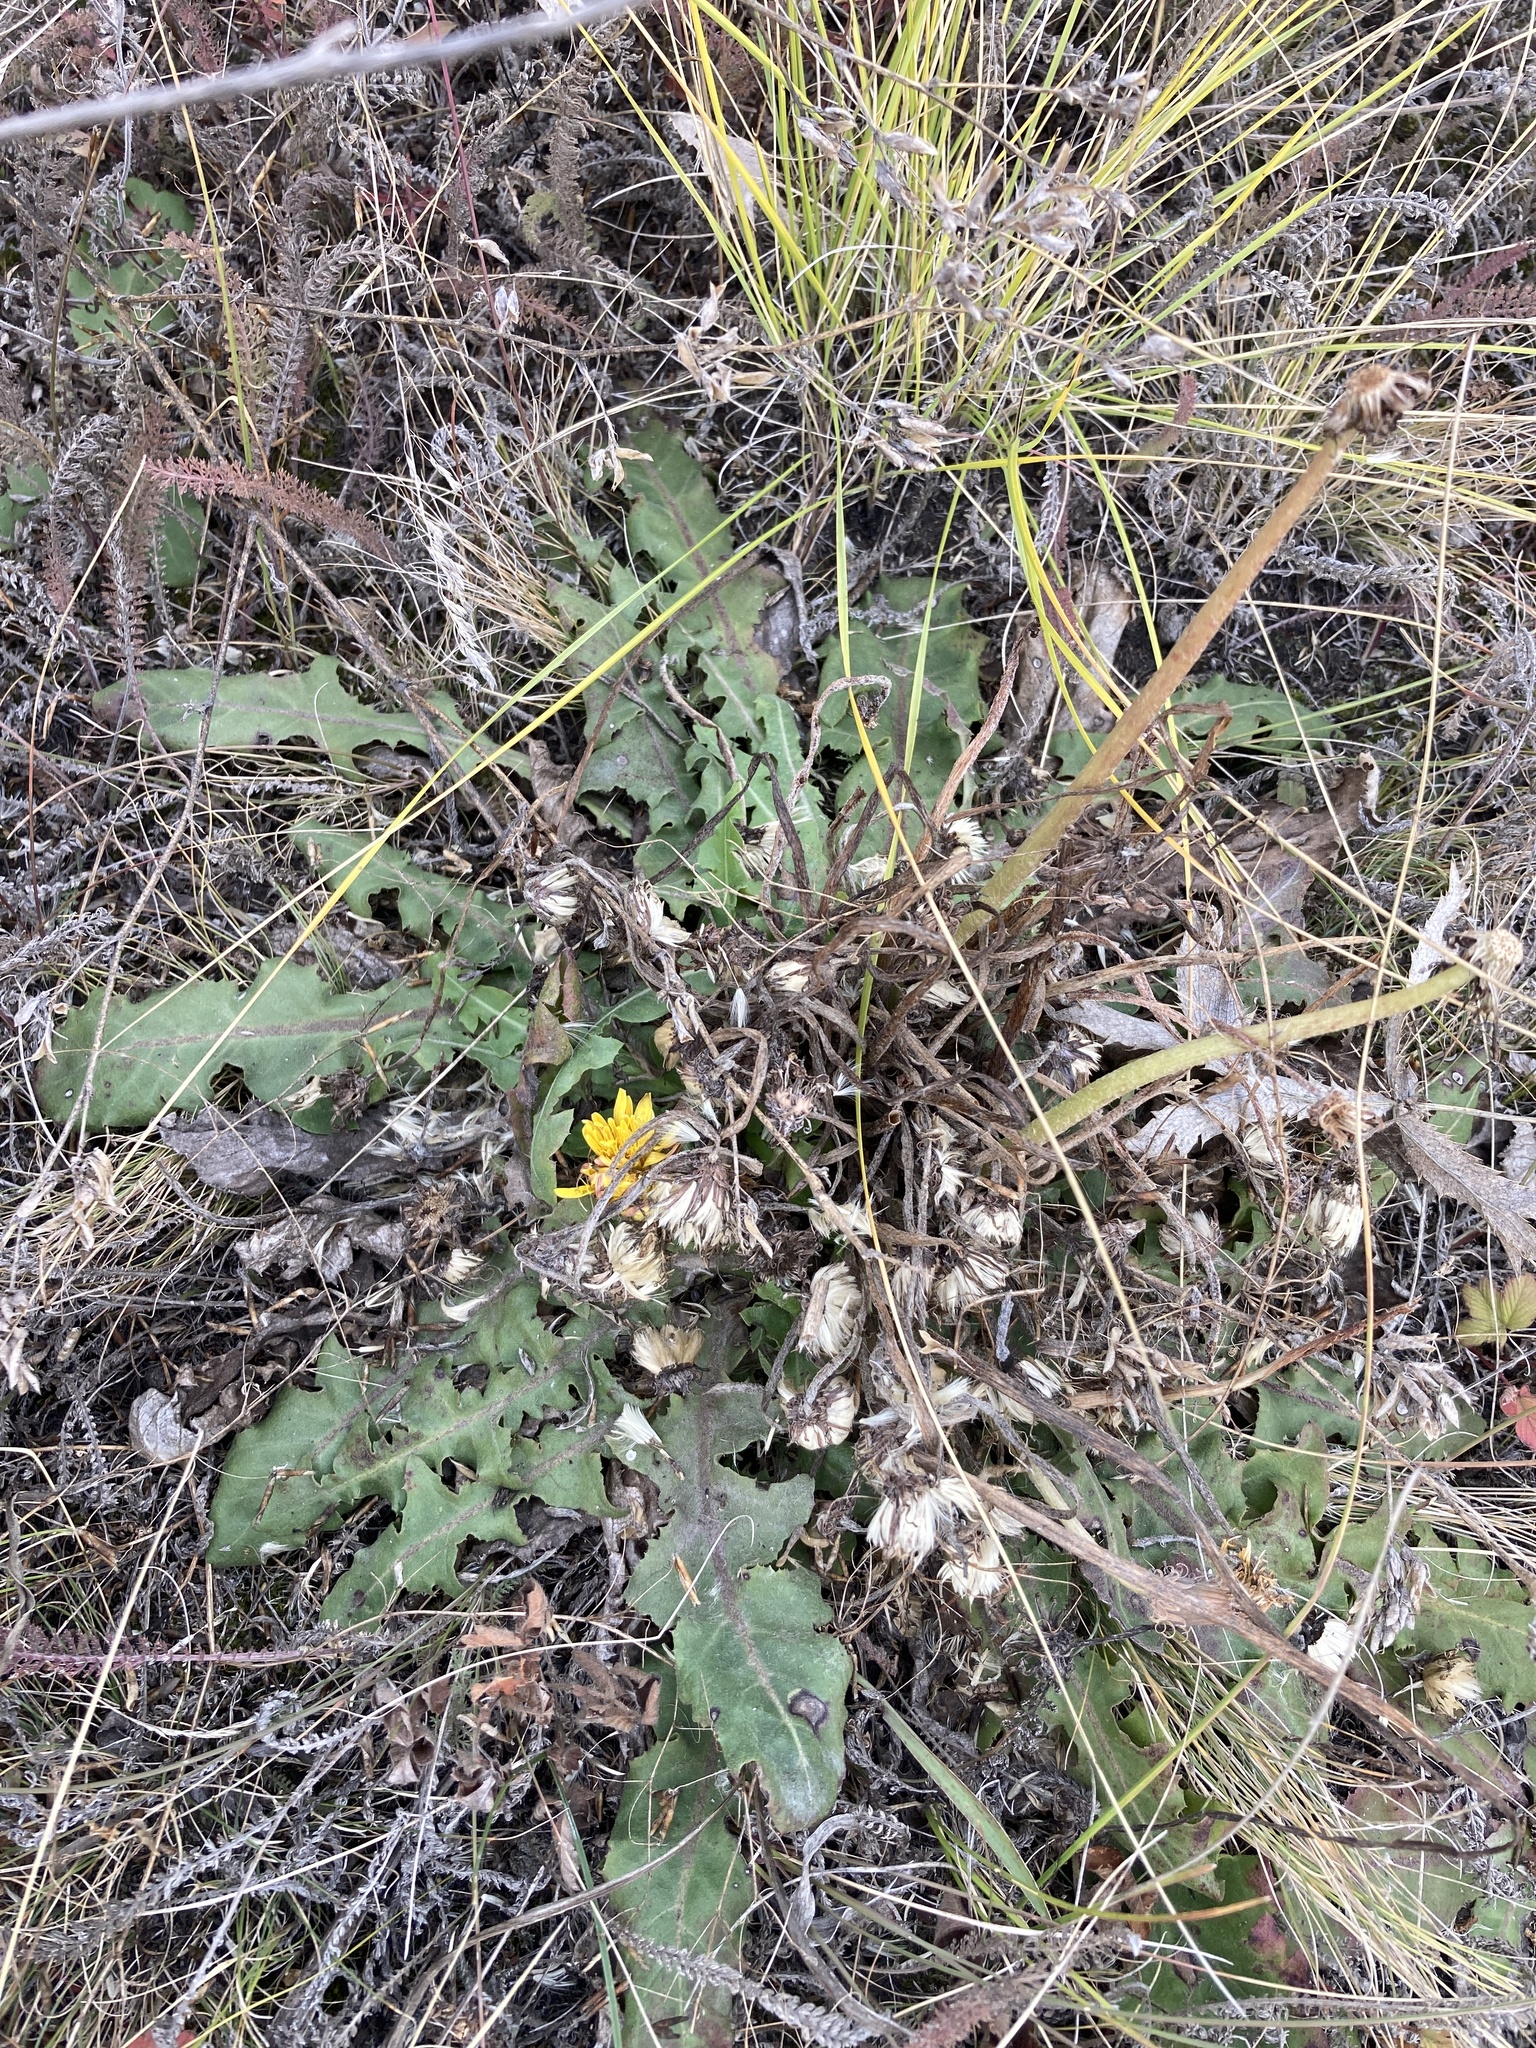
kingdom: Plantae
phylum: Tracheophyta
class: Magnoliopsida
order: Asterales
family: Asteraceae
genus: Taraxacum
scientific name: Taraxacum serotinum
